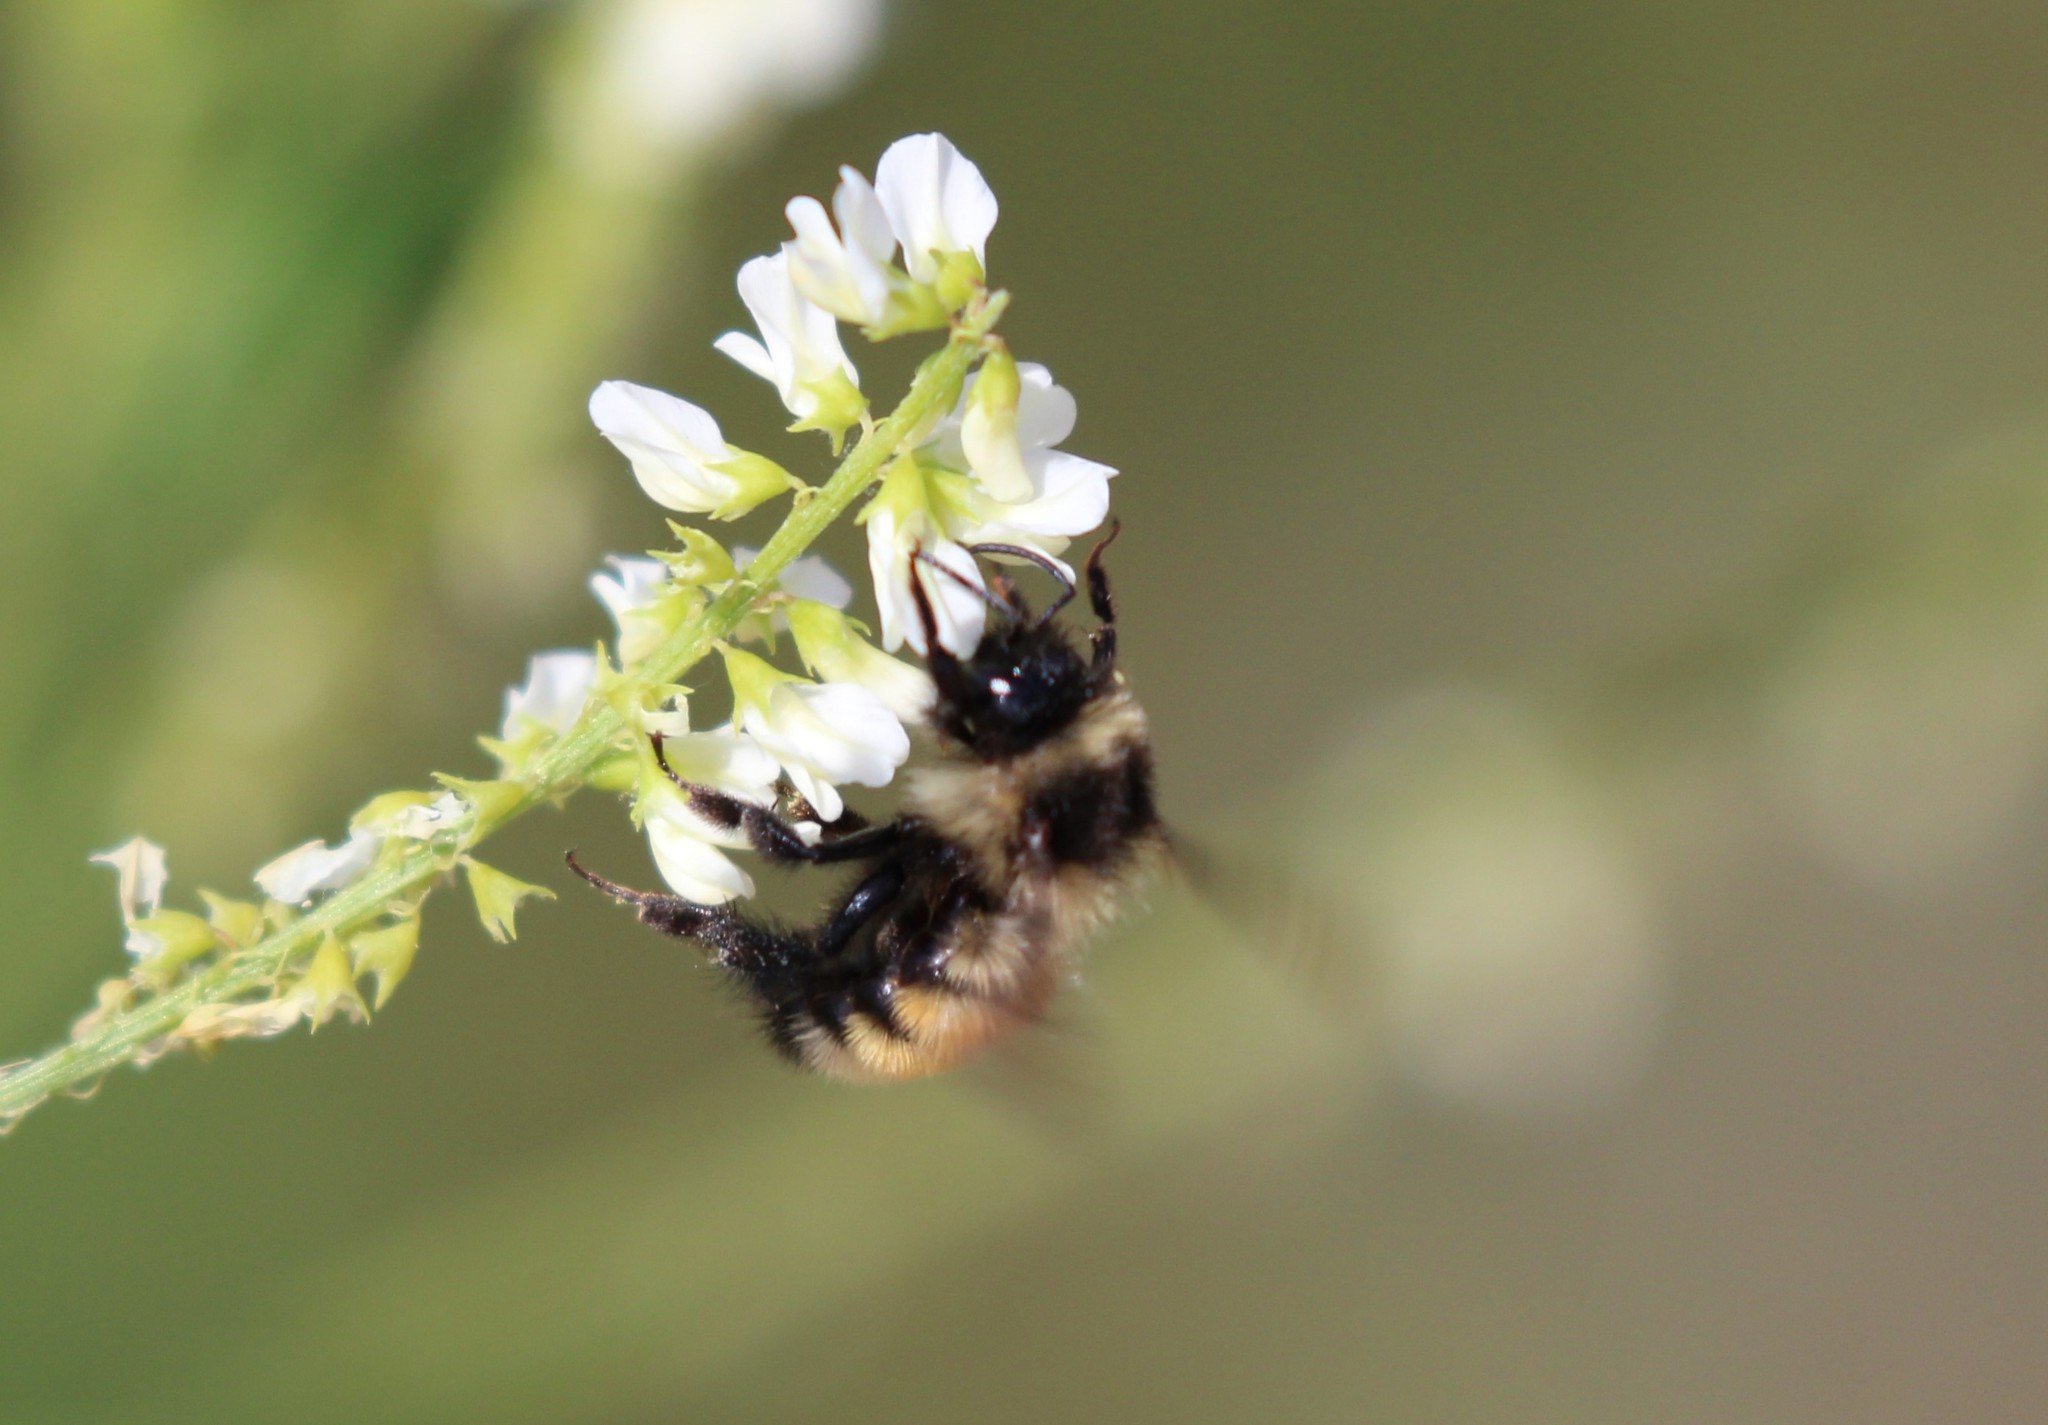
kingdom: Animalia
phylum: Arthropoda
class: Insecta
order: Hymenoptera
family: Apidae
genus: Bombus
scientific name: Bombus ternarius
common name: Tri-colored bumble bee
